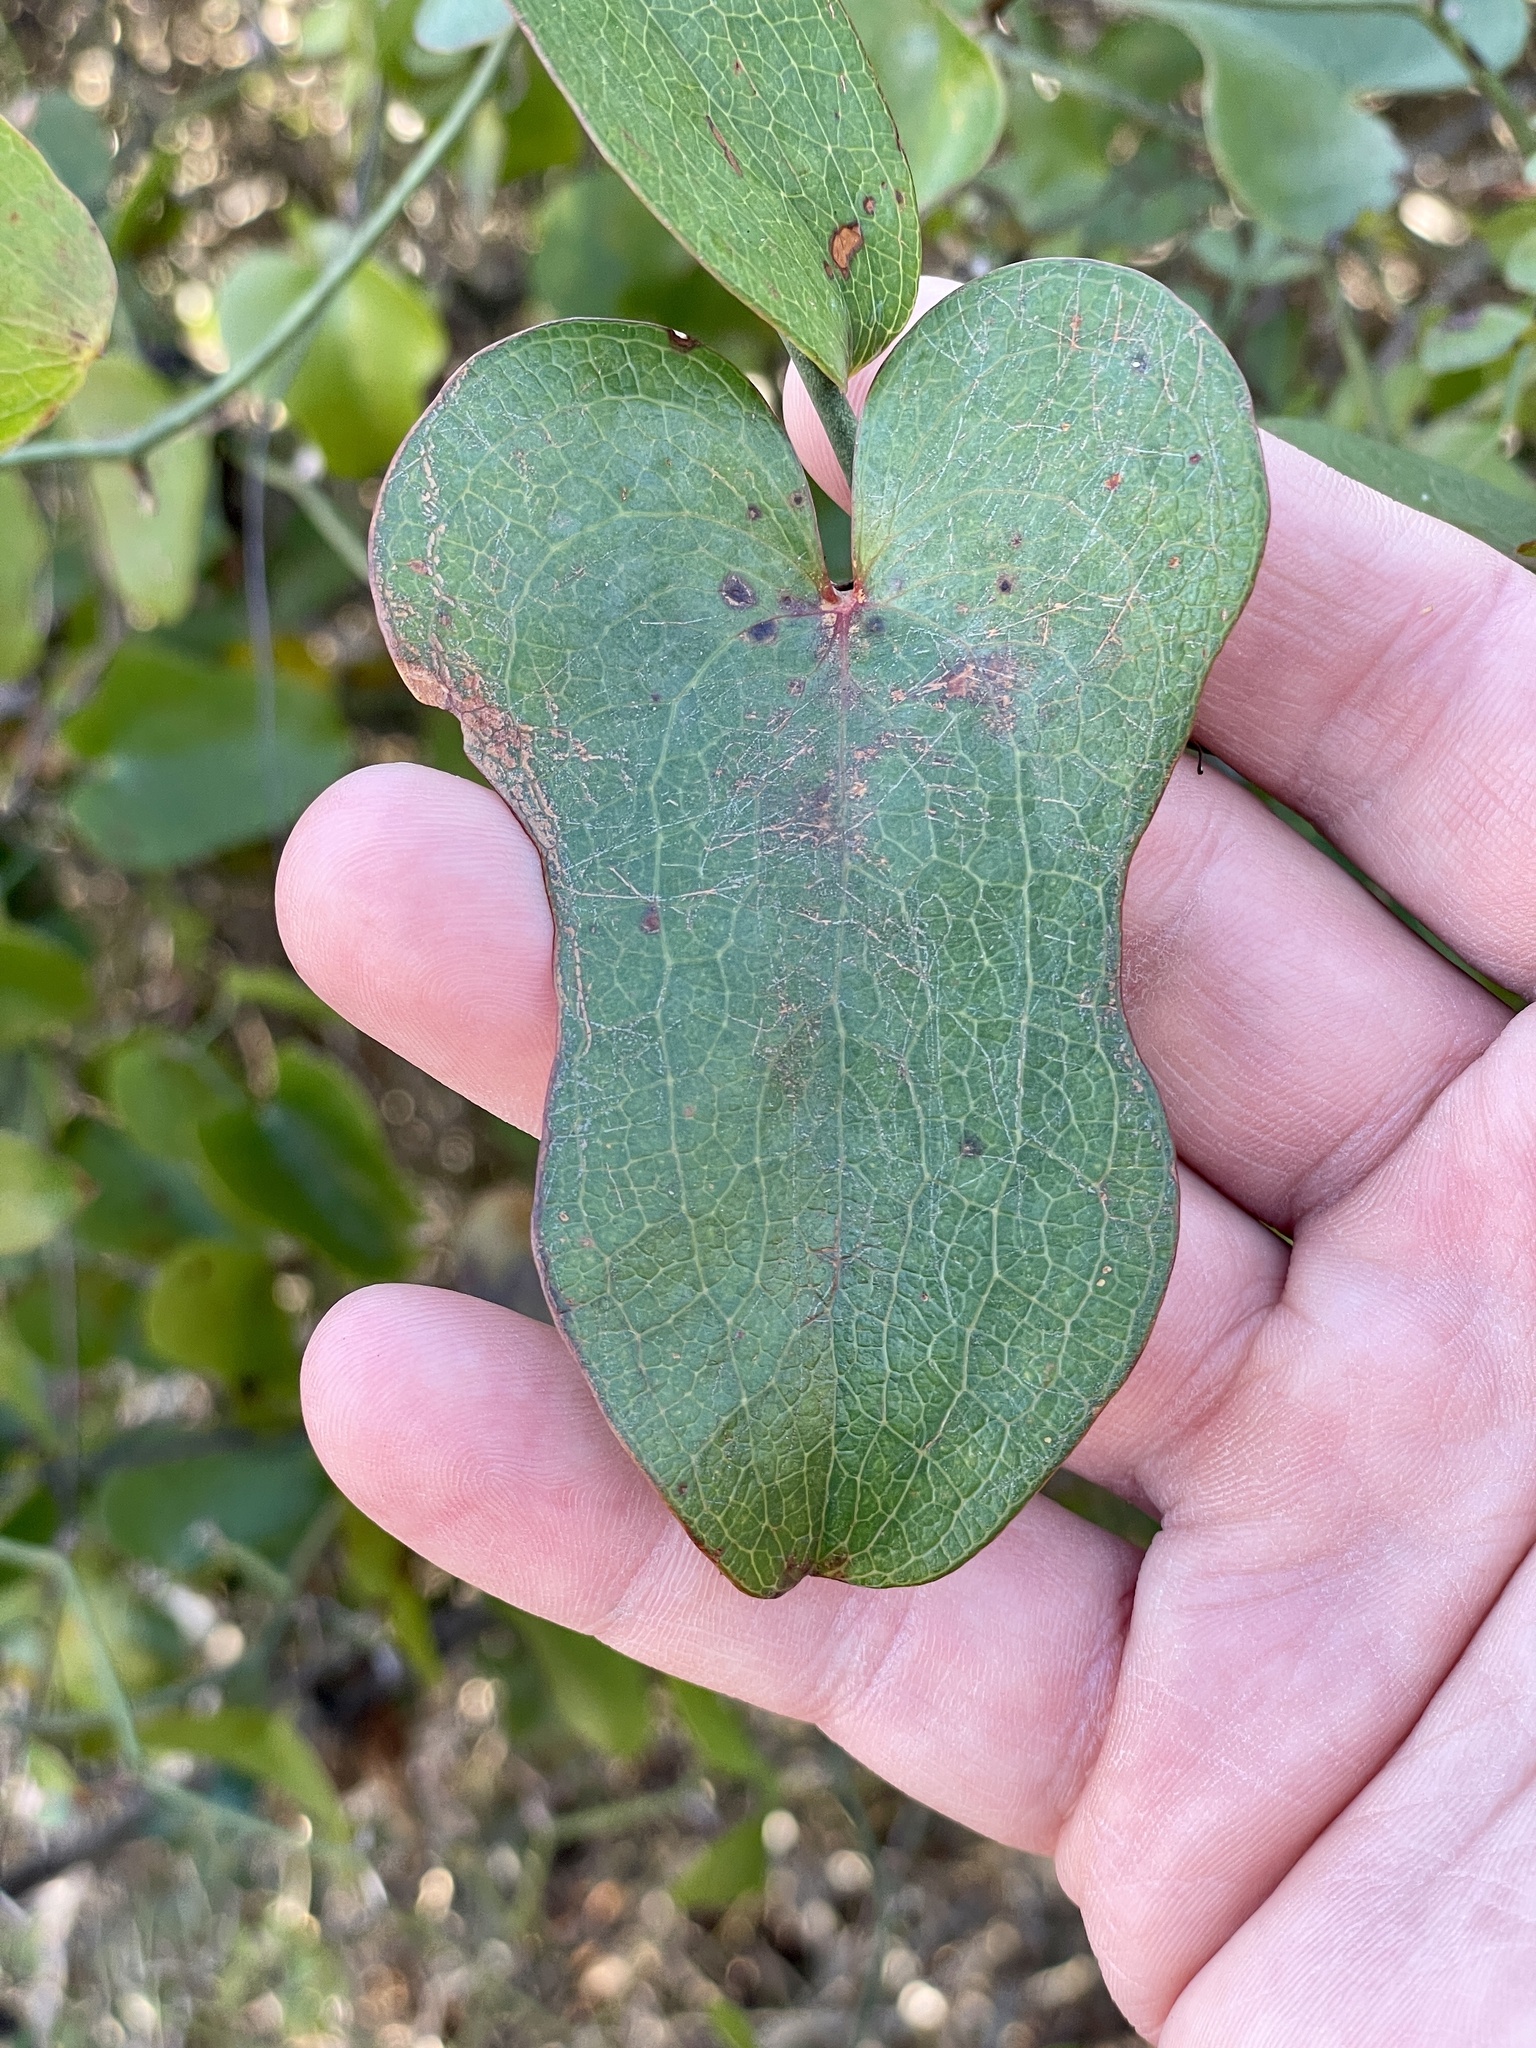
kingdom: Plantae
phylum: Tracheophyta
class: Liliopsida
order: Liliales
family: Smilacaceae
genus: Smilax
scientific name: Smilax bona-nox
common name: Catbrier
